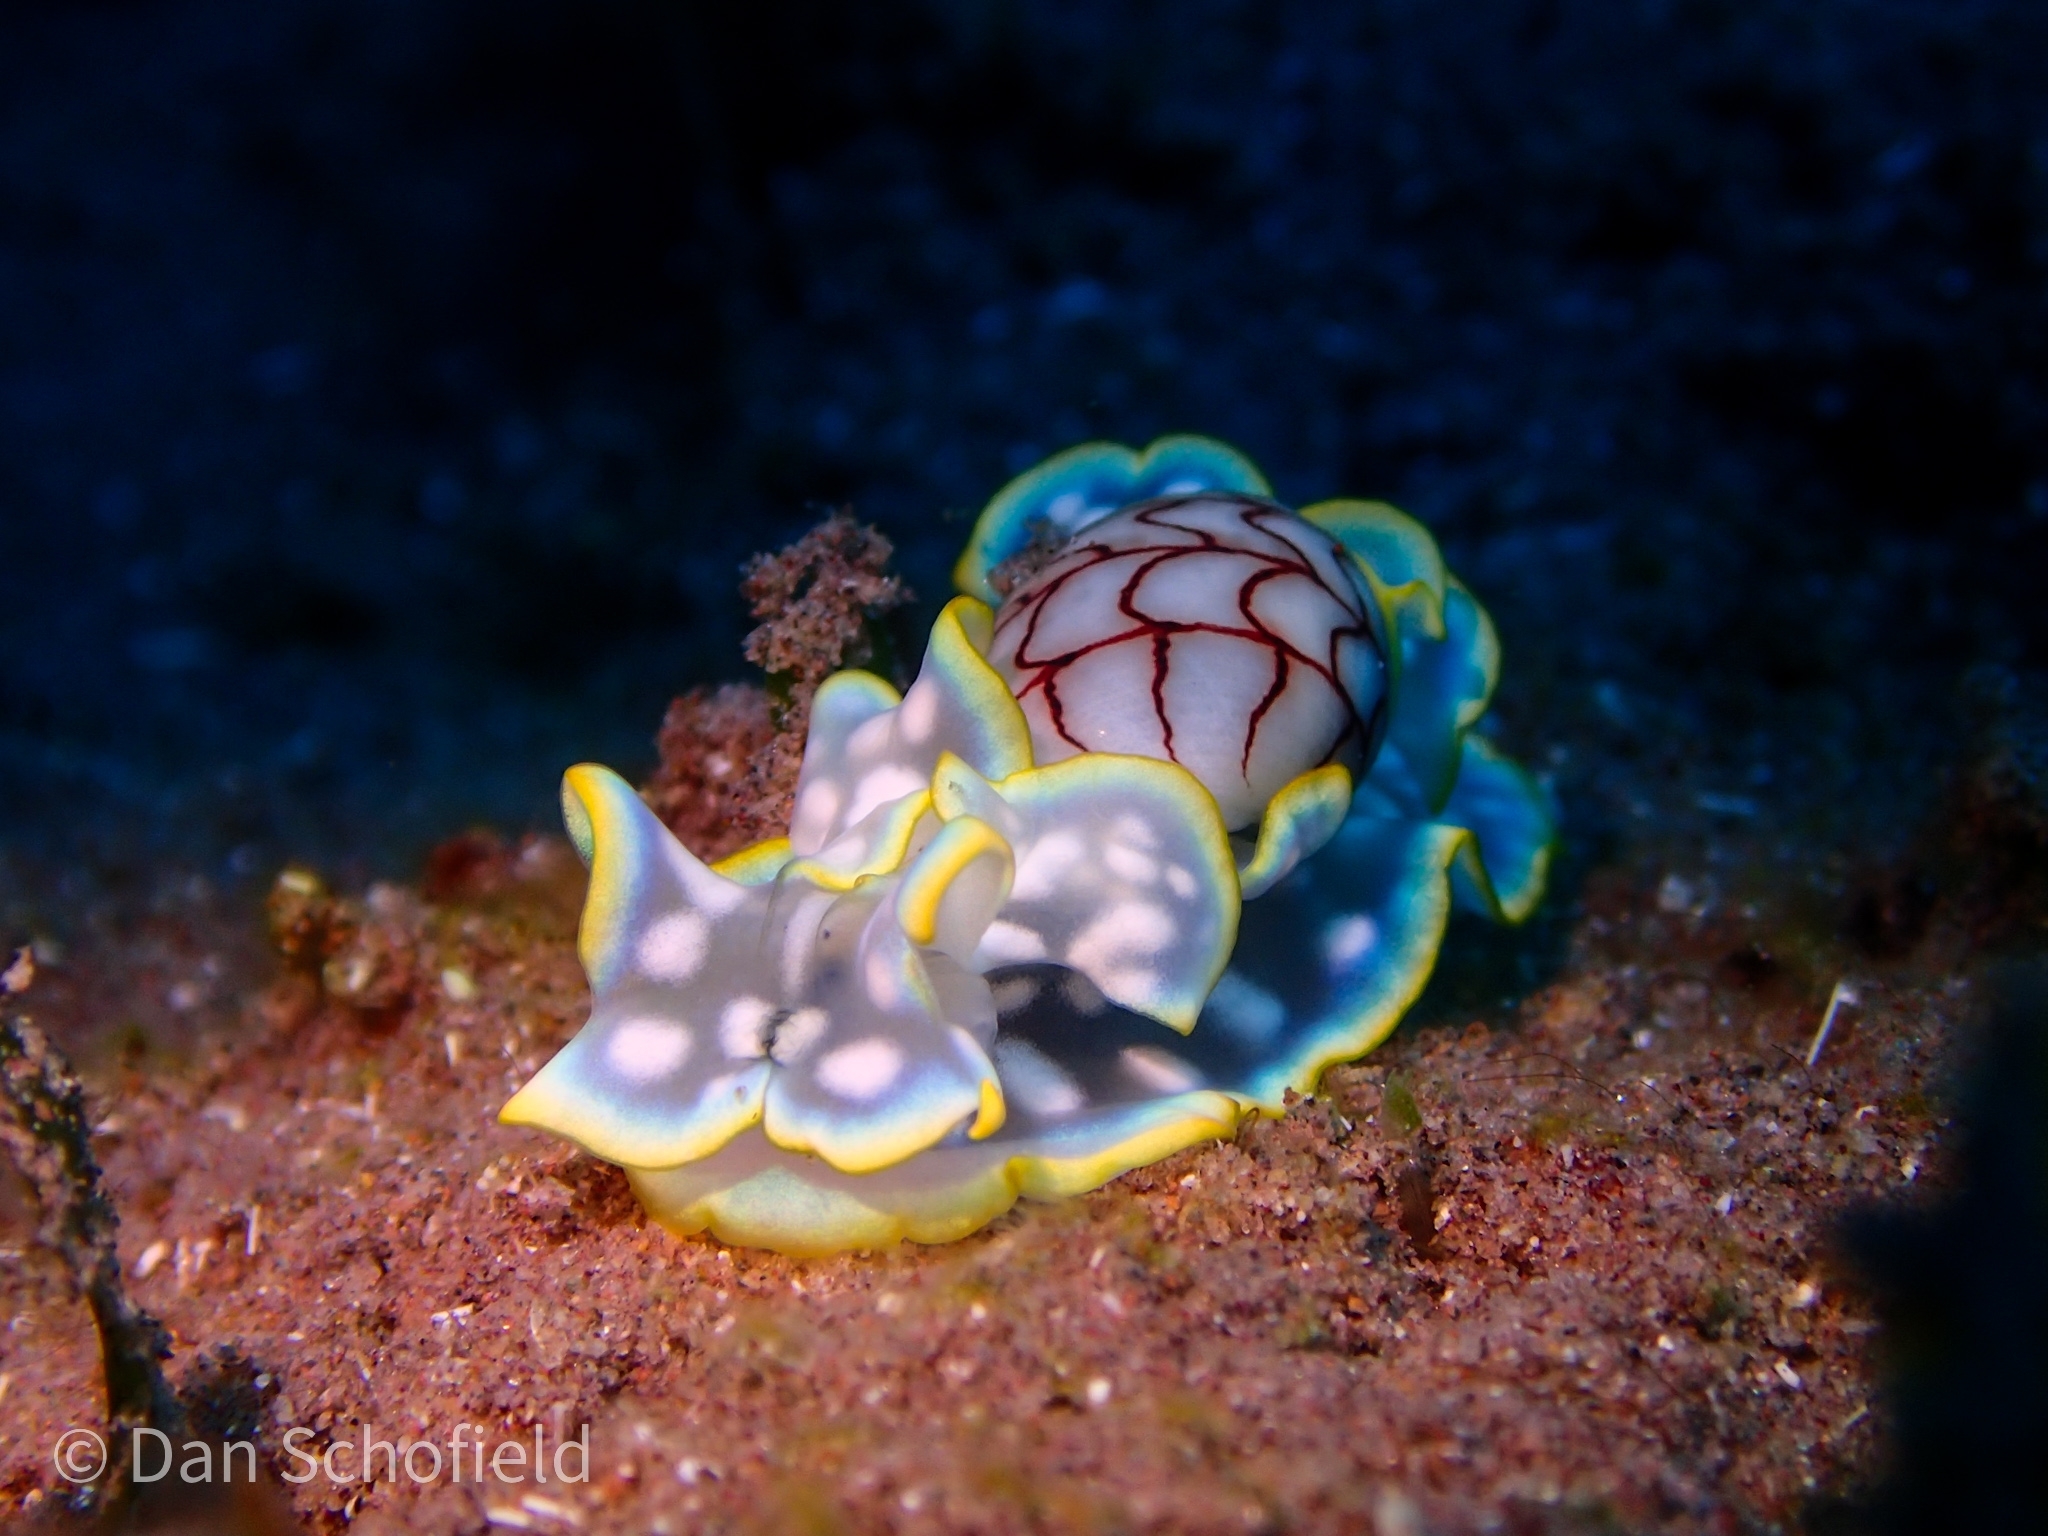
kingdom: Animalia
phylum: Mollusca
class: Gastropoda
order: Cephalaspidea
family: Aplustridae
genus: Micromelo
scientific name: Micromelo undatus
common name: Miniature melo
